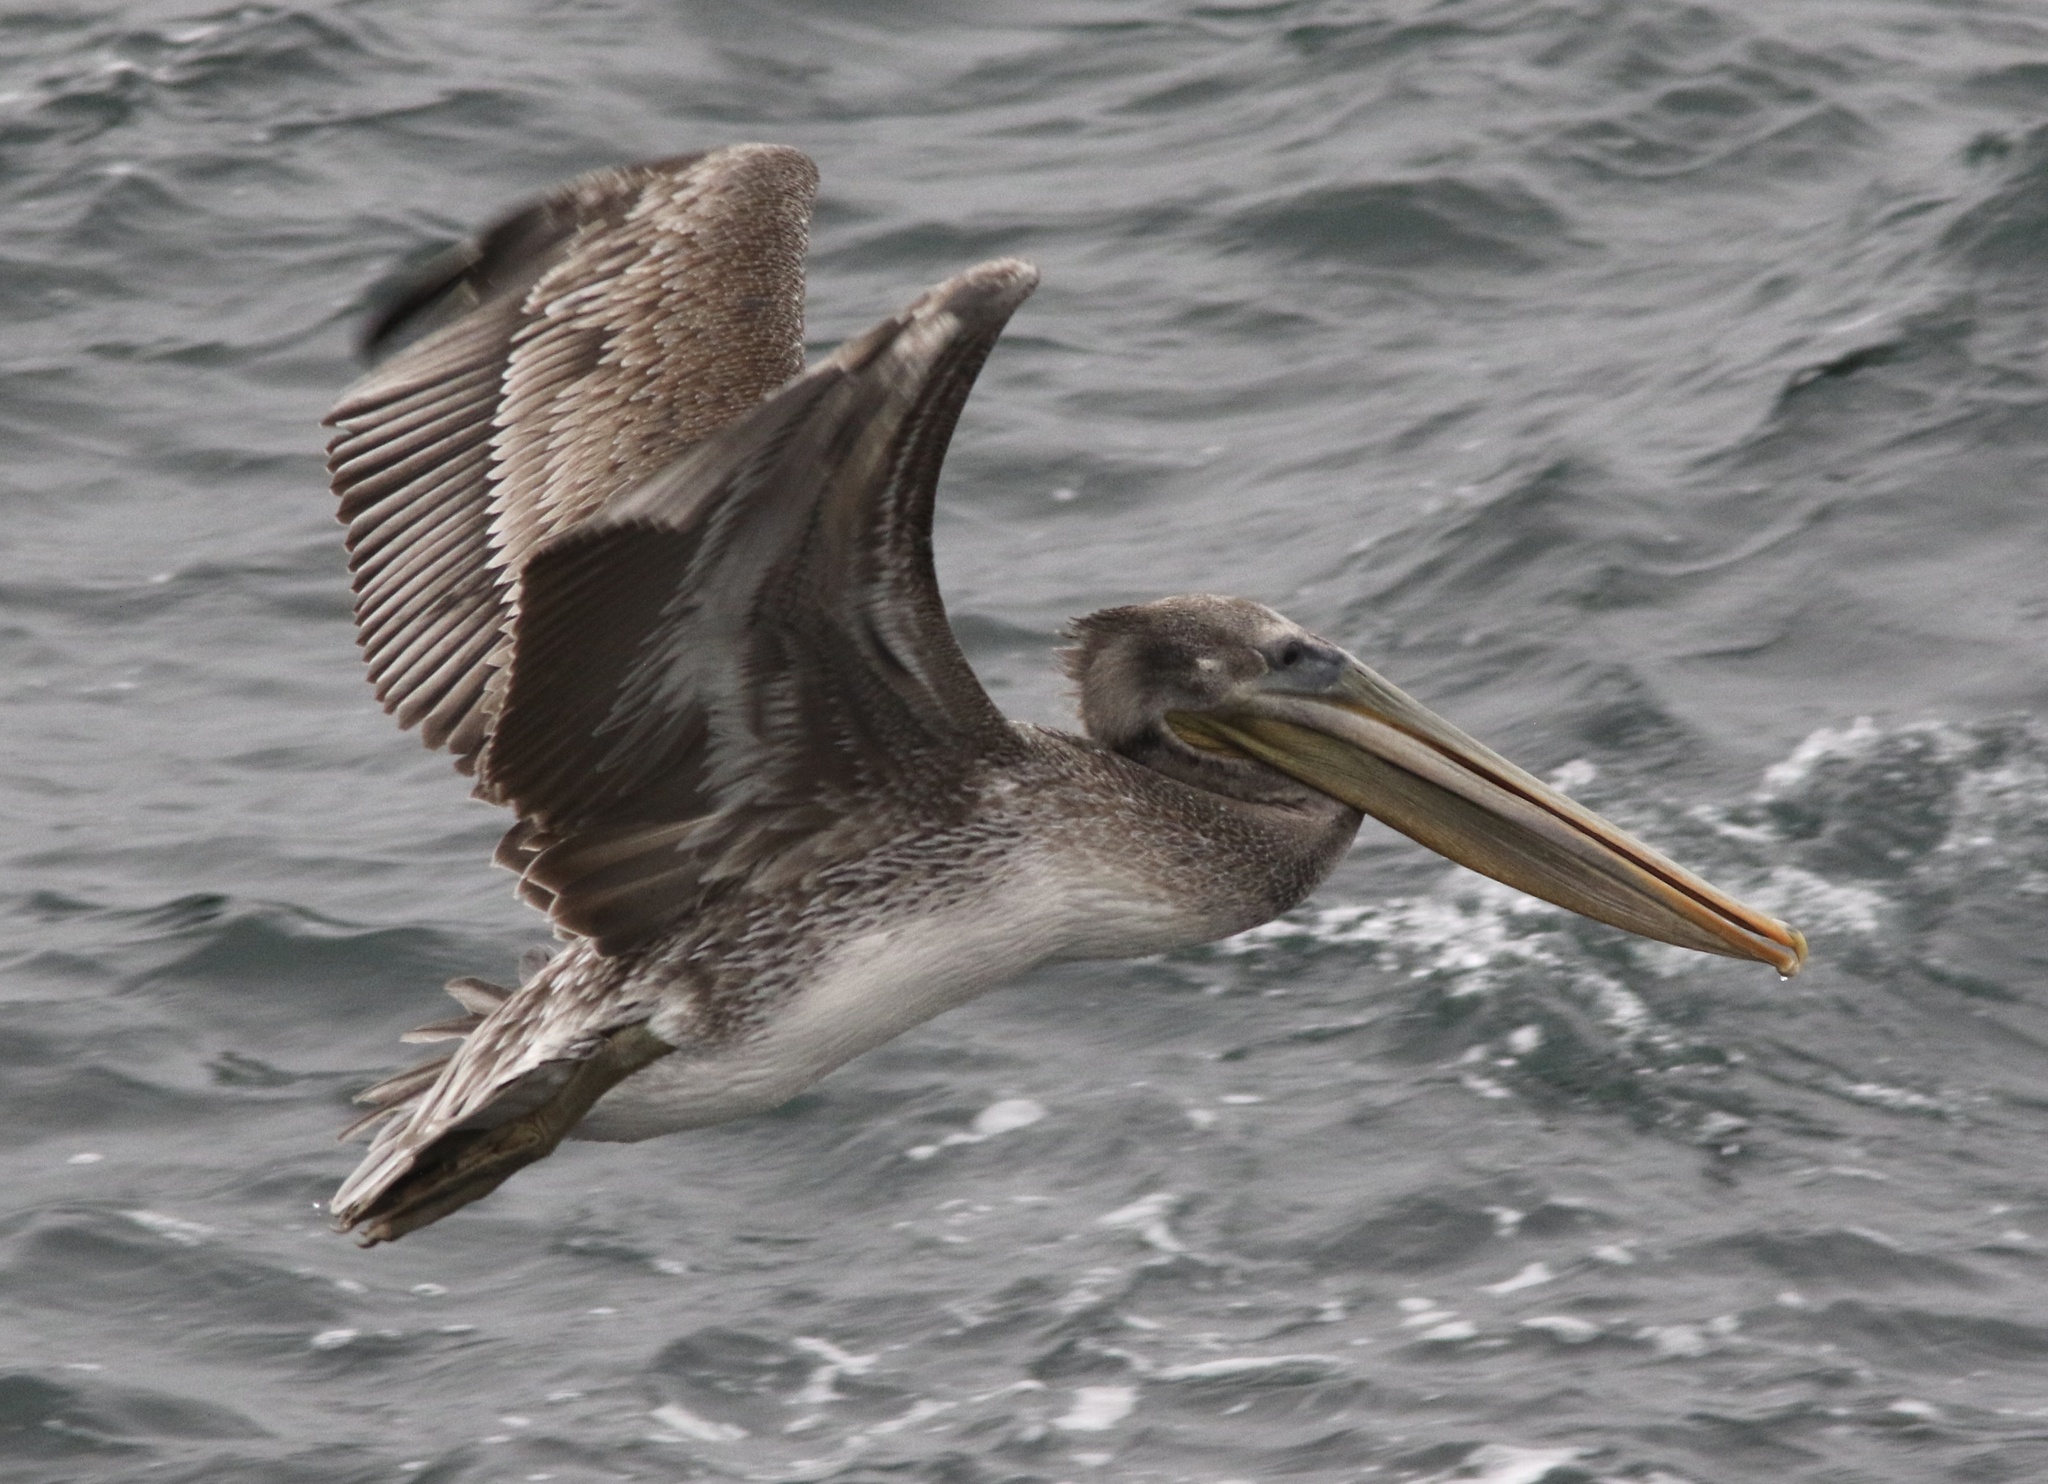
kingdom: Animalia
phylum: Chordata
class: Aves
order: Pelecaniformes
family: Pelecanidae
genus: Pelecanus
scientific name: Pelecanus occidentalis
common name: Brown pelican
